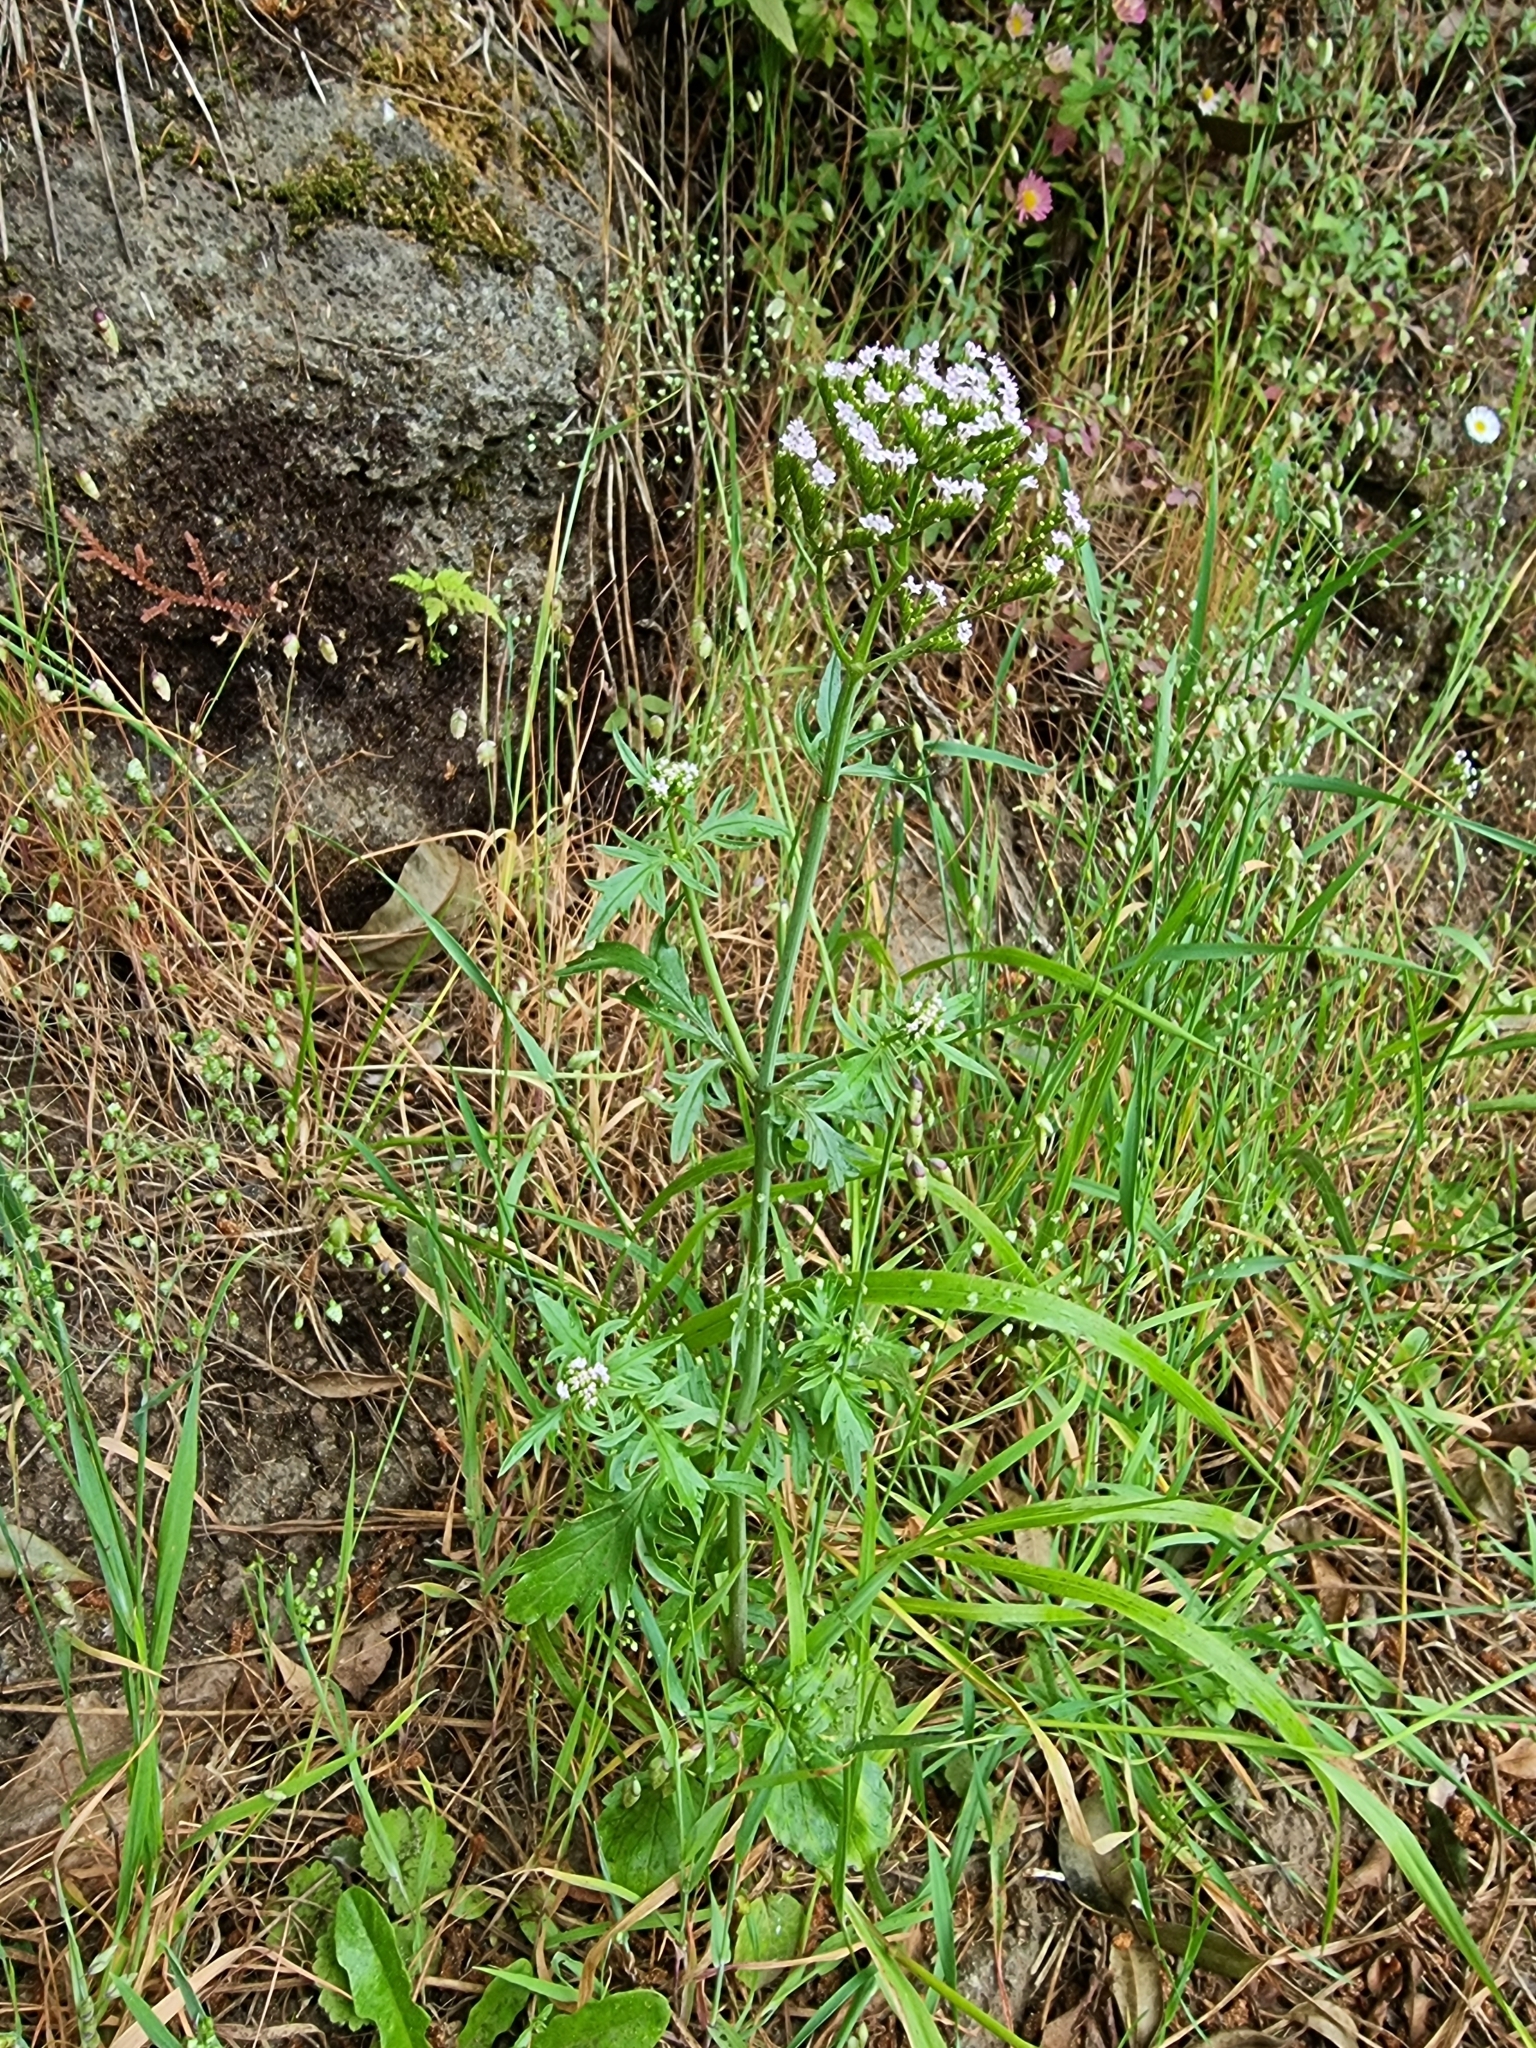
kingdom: Plantae
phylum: Tracheophyta
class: Magnoliopsida
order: Dipsacales
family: Caprifoliaceae
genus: Centranthus
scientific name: Centranthus calcitrapae
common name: Annual valerian
